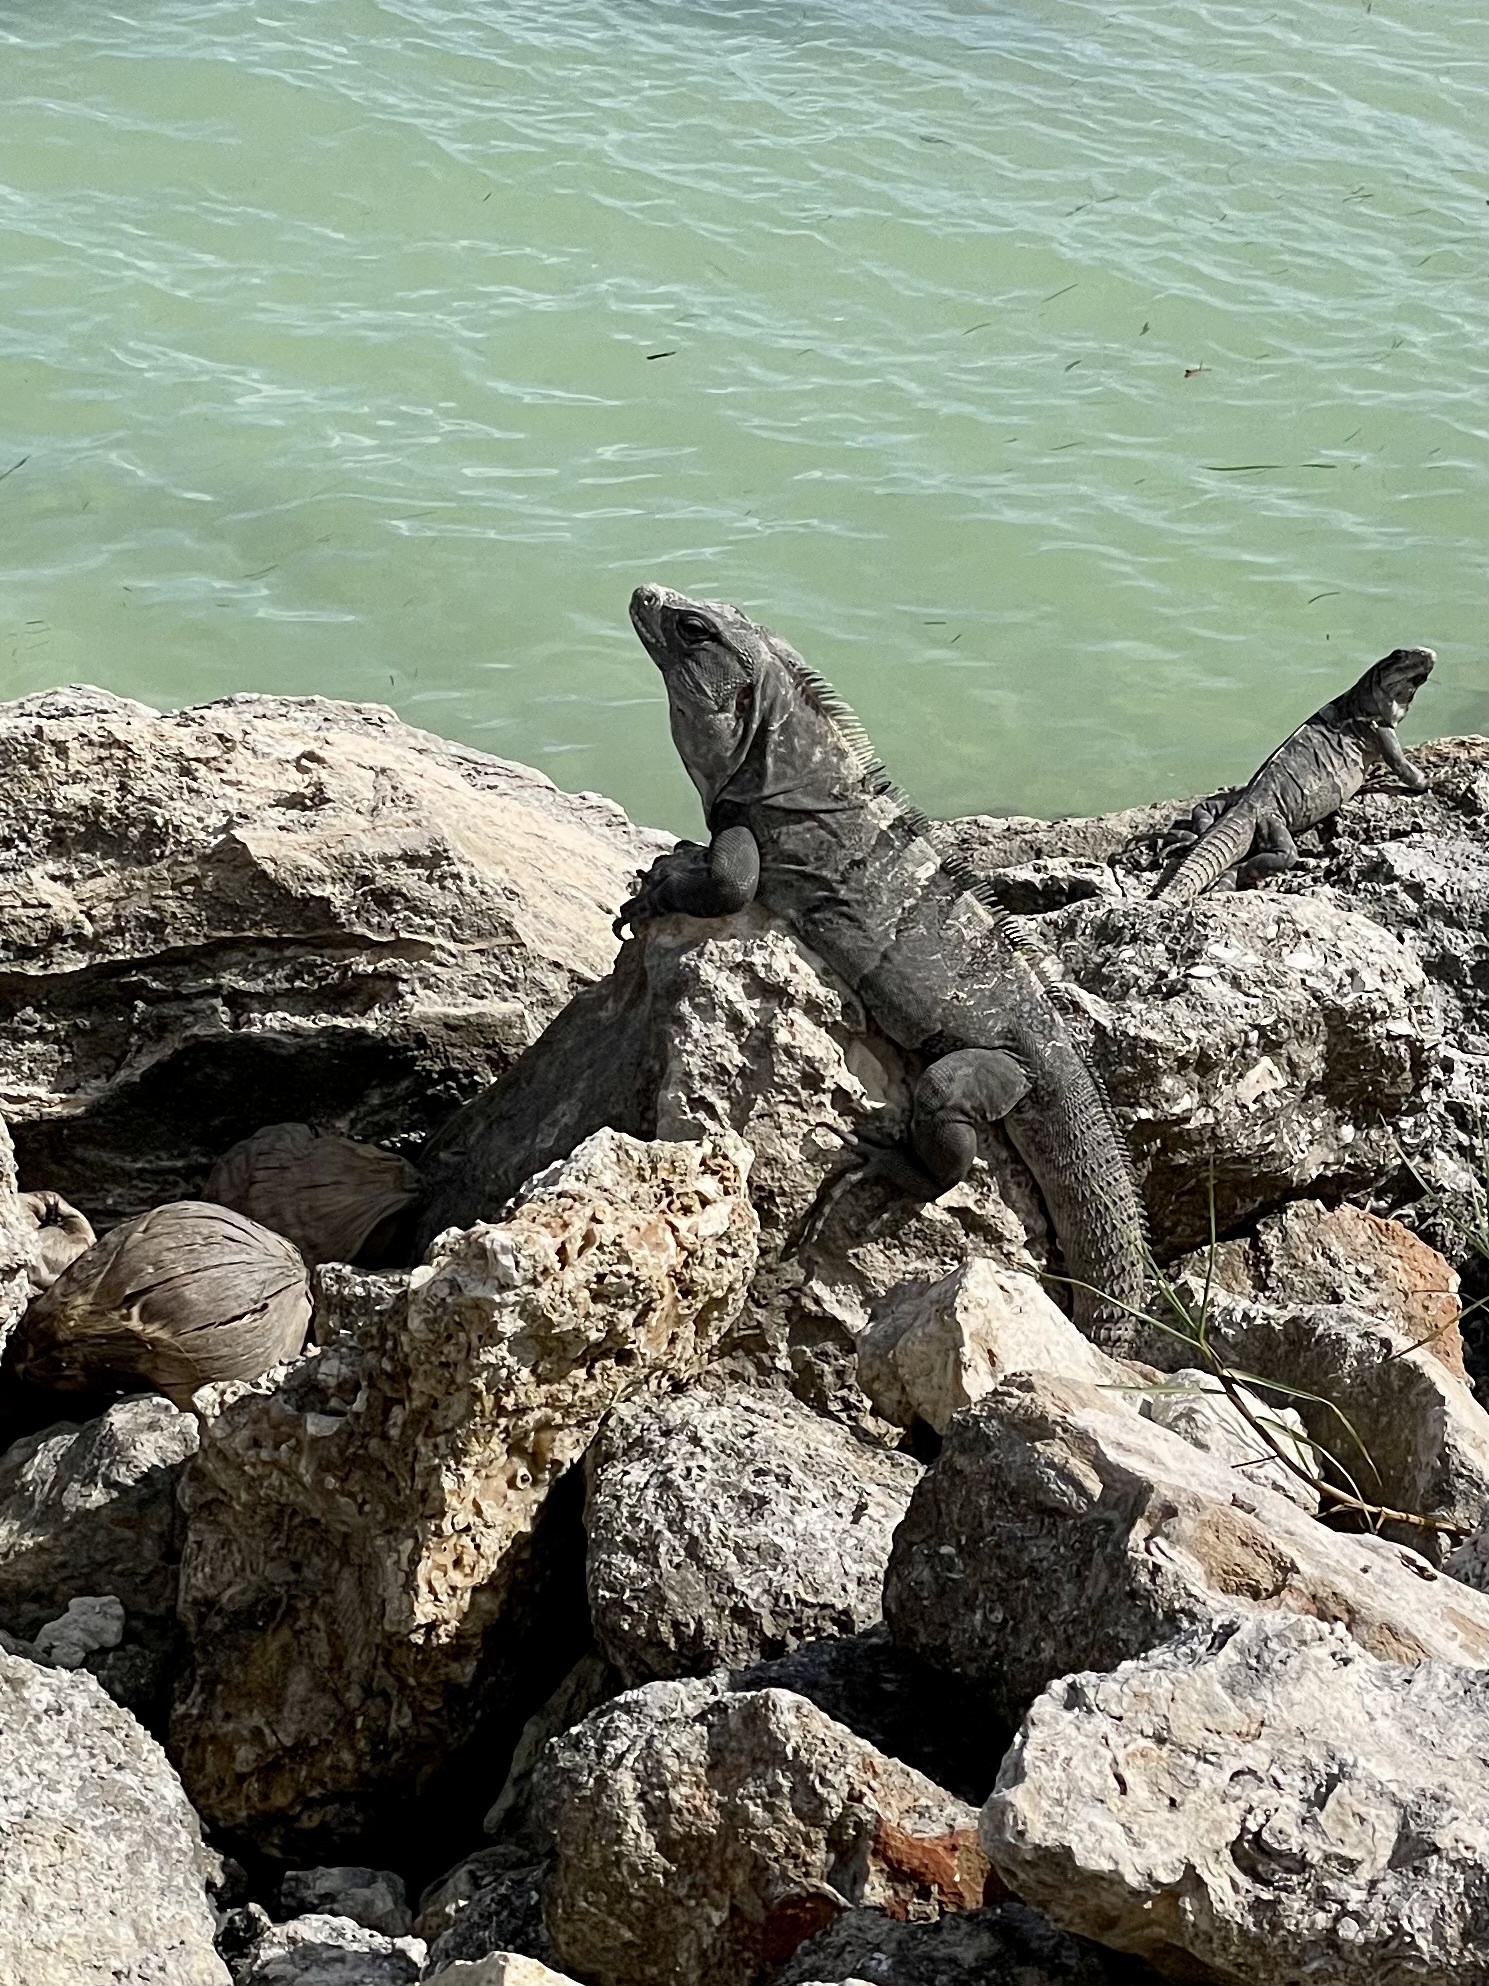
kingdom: Animalia
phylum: Chordata
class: Squamata
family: Iguanidae
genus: Ctenosaura
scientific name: Ctenosaura similis
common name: Black spiny-tailed iguana
